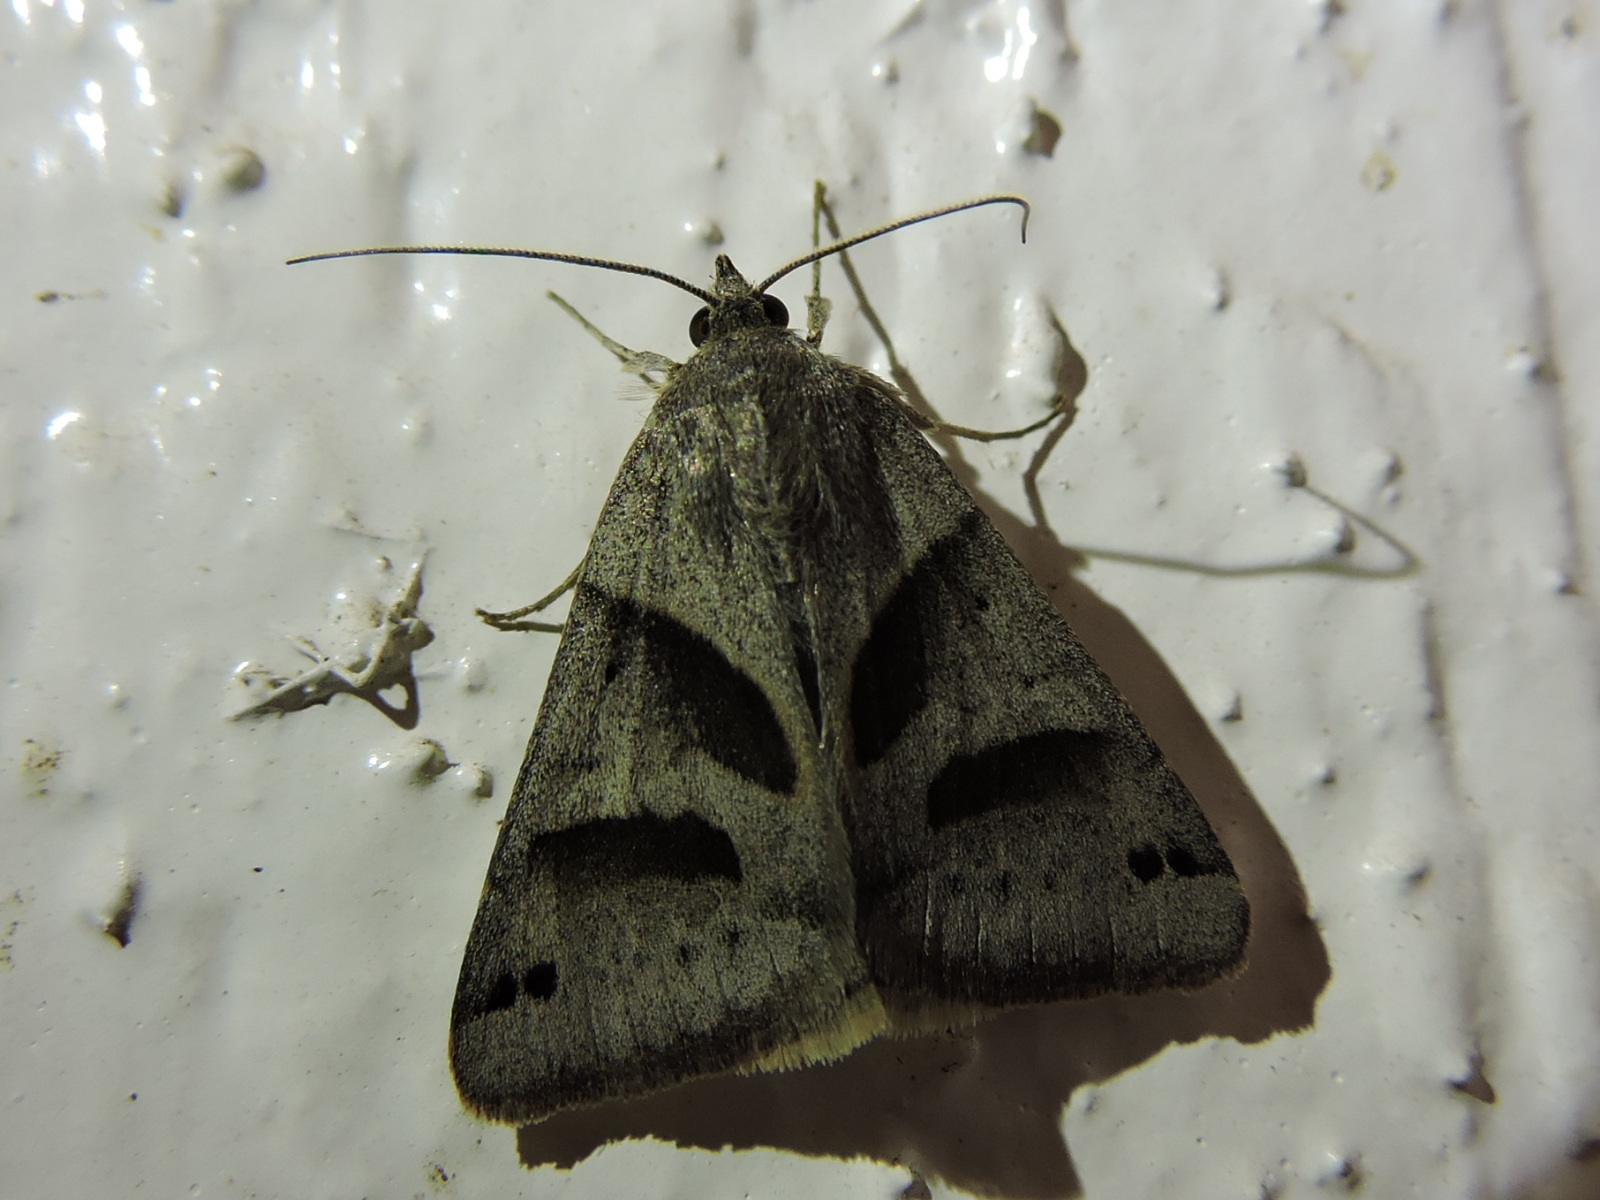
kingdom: Animalia
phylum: Arthropoda
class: Insecta
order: Lepidoptera
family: Erebidae
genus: Caenurgina
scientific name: Caenurgina erechtea
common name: Forage looper moth
